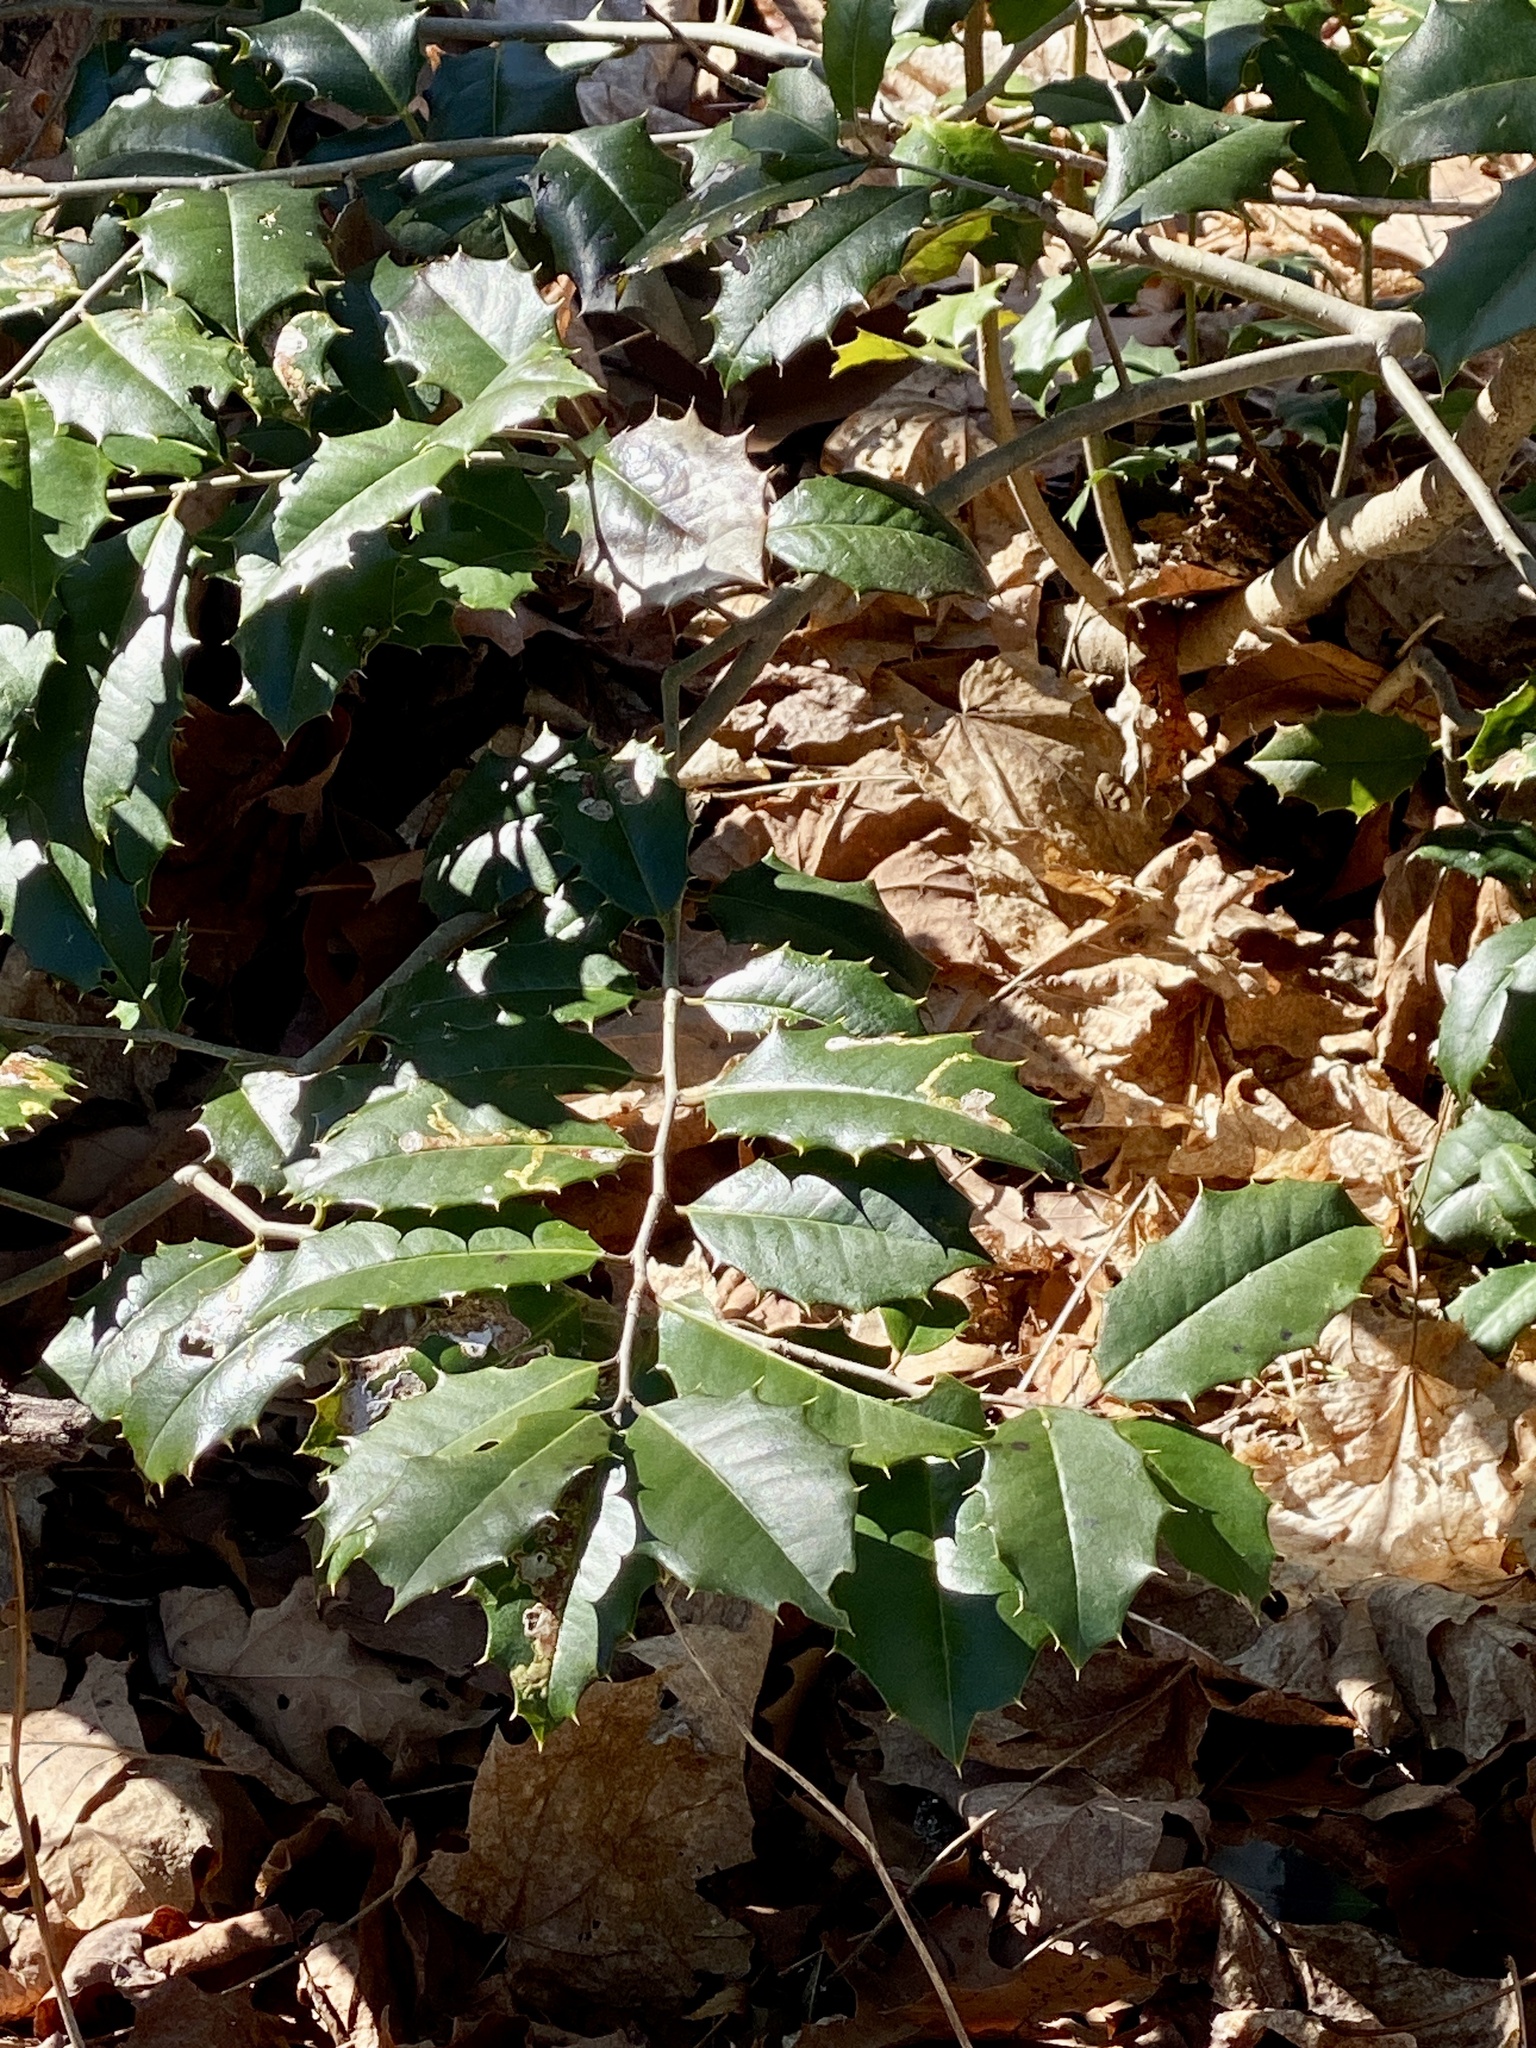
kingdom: Plantae
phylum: Tracheophyta
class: Magnoliopsida
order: Aquifoliales
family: Aquifoliaceae
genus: Ilex
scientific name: Ilex opaca
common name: American holly
